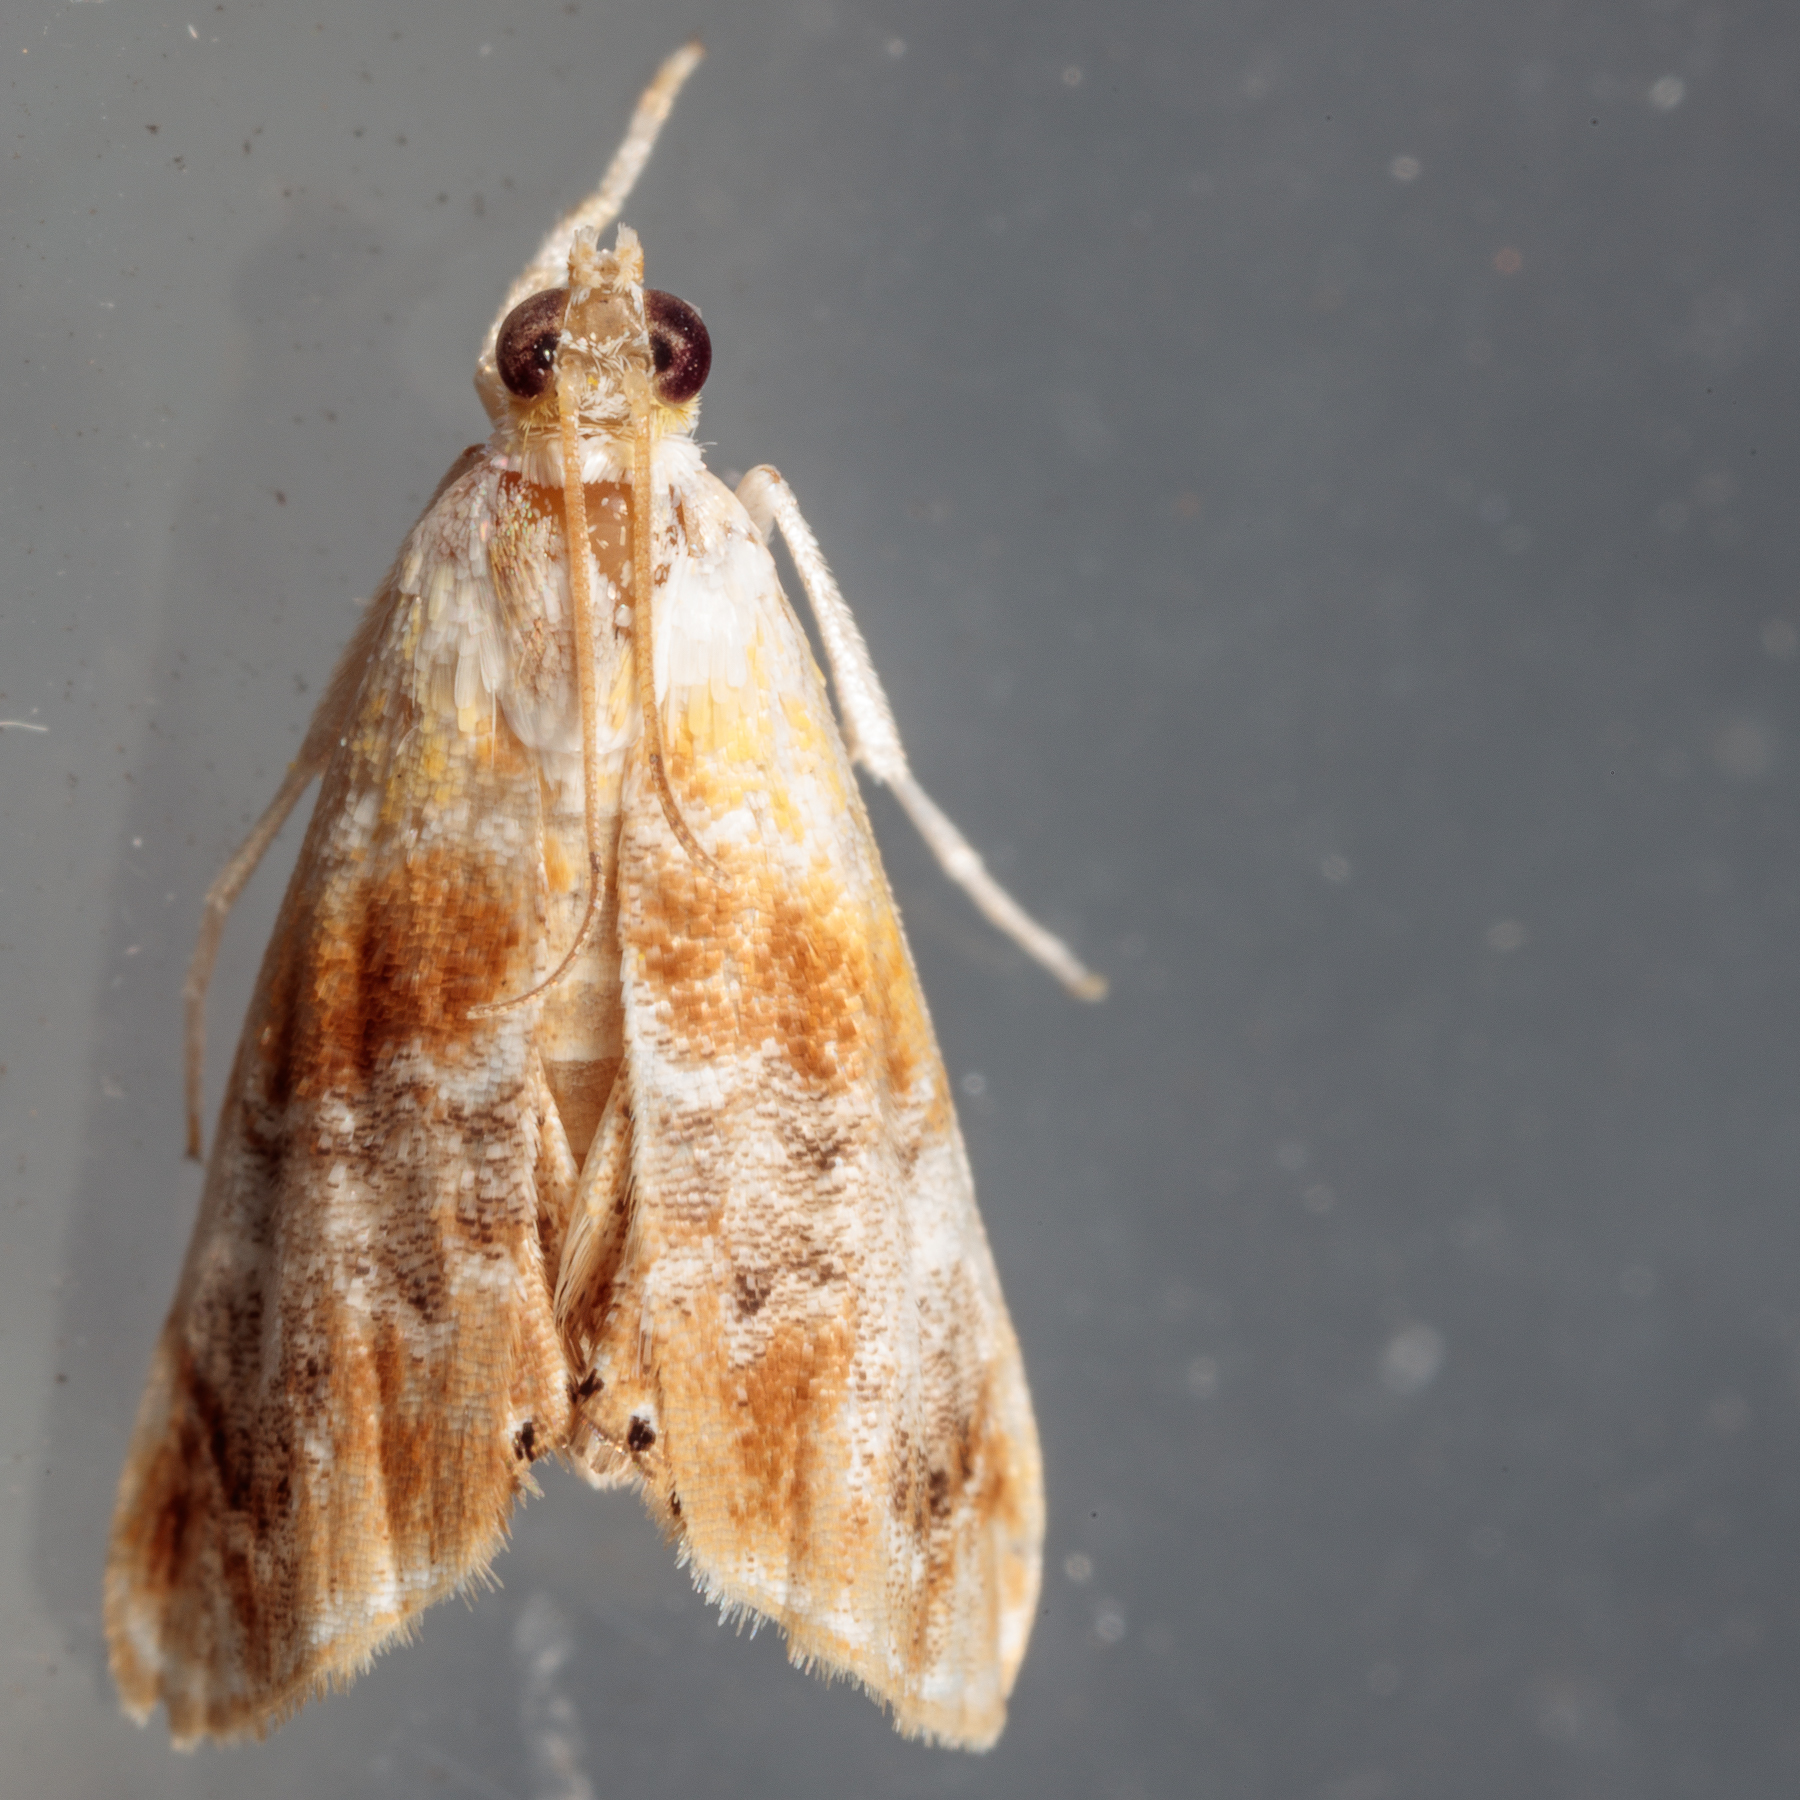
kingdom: Animalia
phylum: Arthropoda
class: Insecta
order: Lepidoptera
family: Crambidae
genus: Dicymolomia
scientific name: Dicymolomia julianalis
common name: Julia's dicymolomia moth
